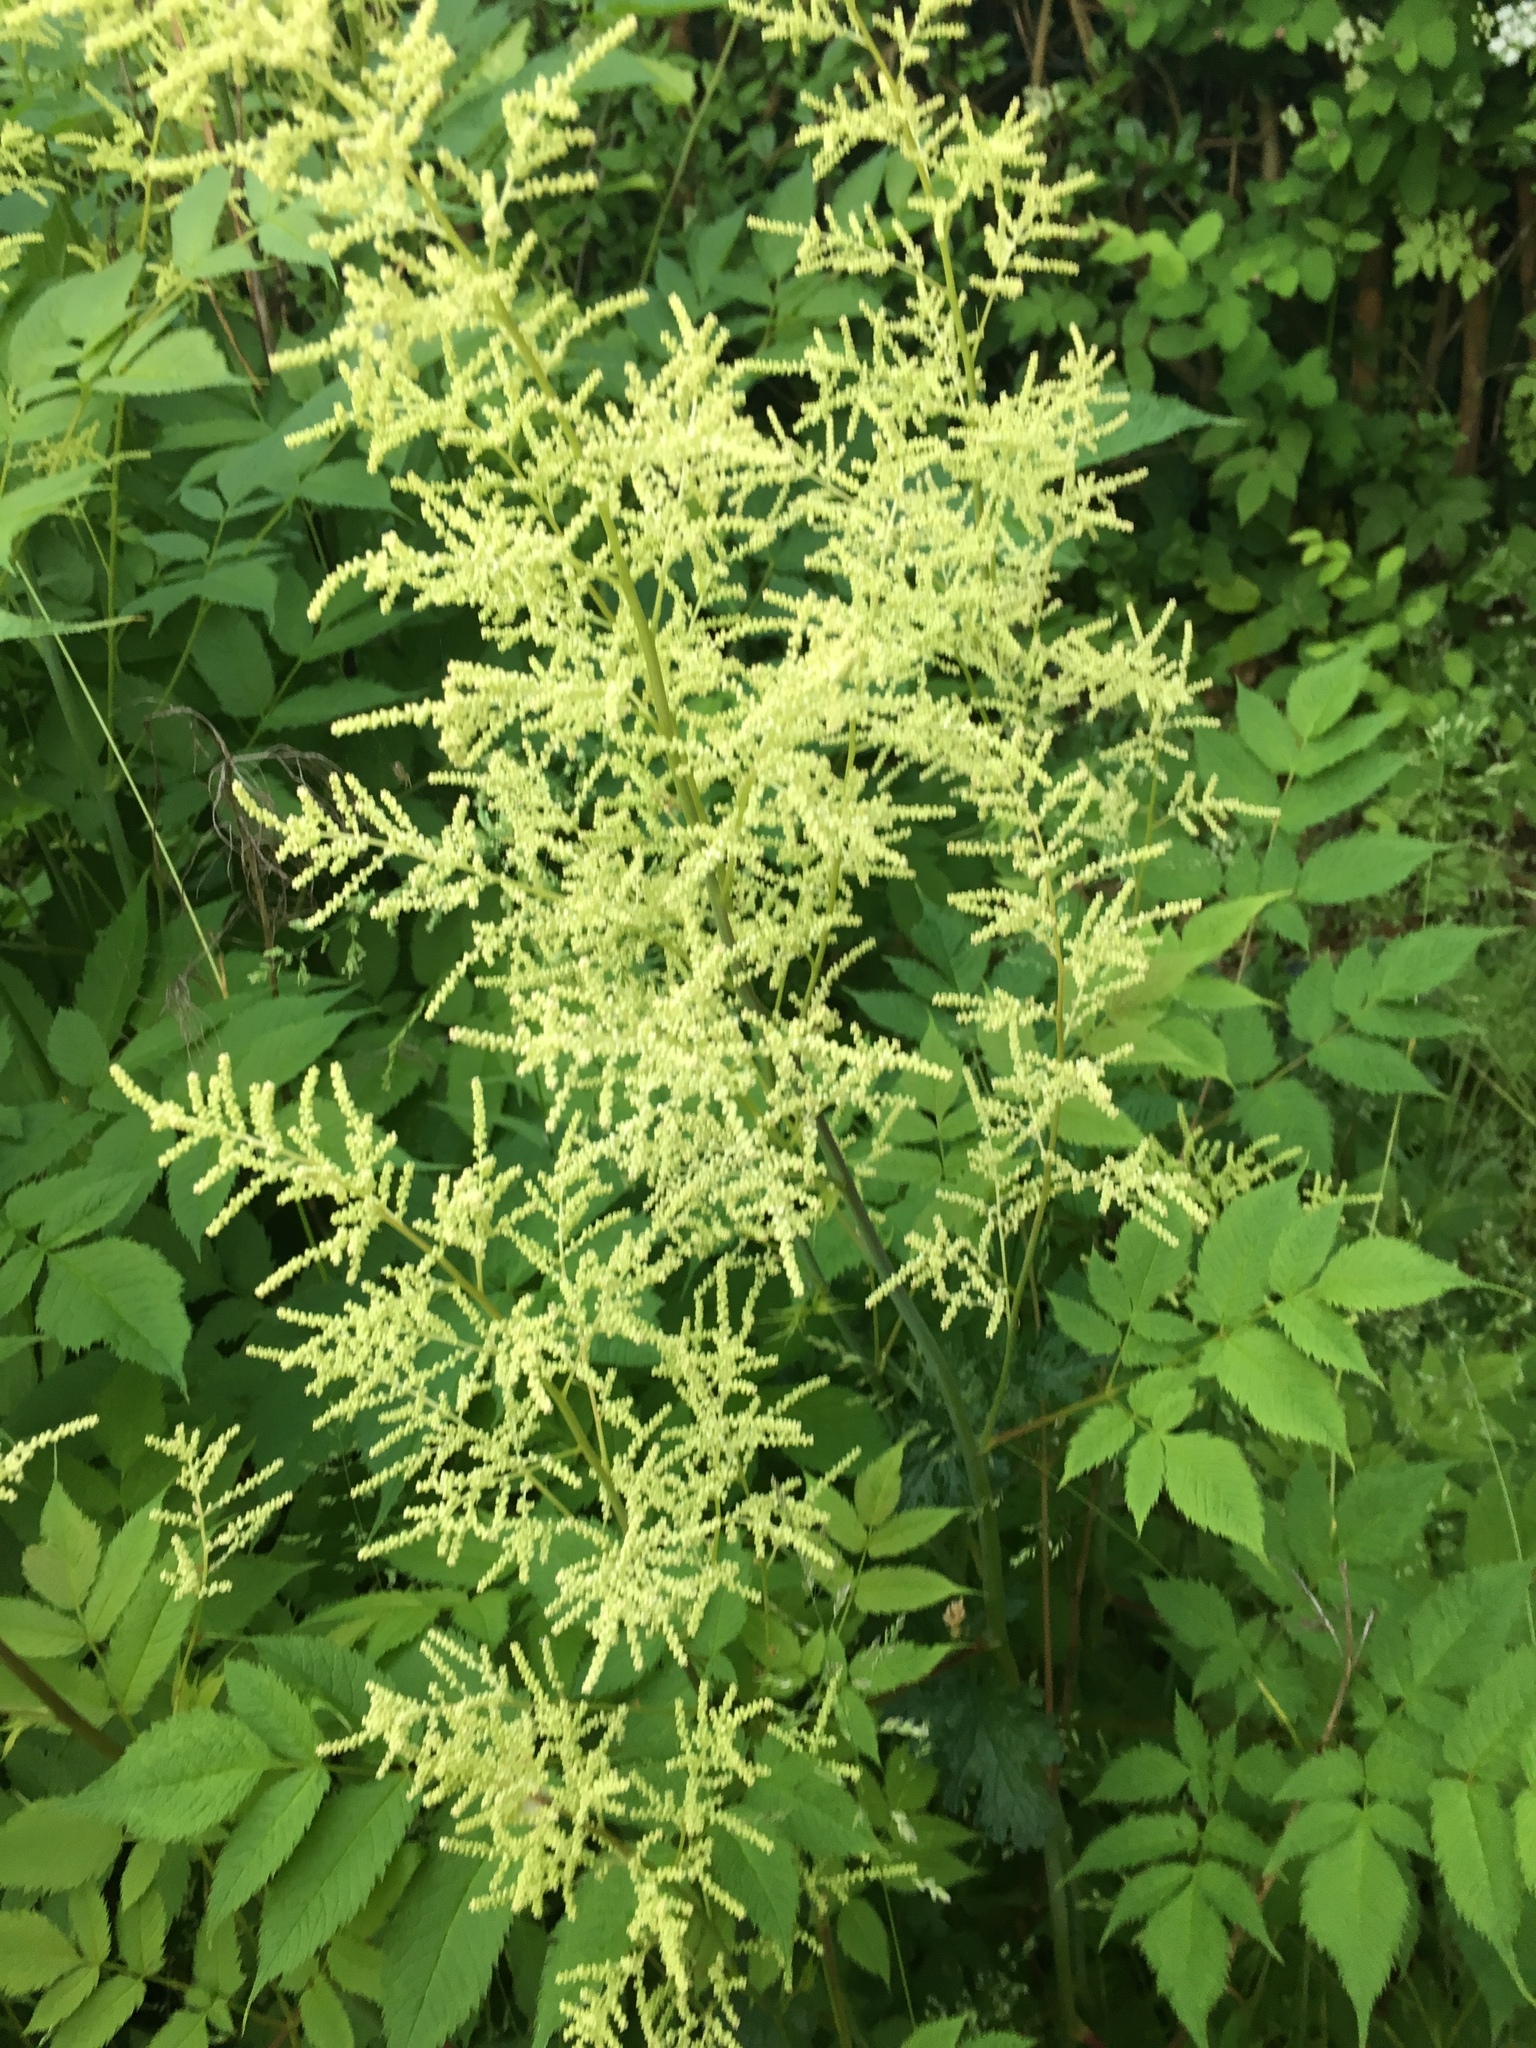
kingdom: Plantae
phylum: Tracheophyta
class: Magnoliopsida
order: Rosales
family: Rosaceae
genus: Aruncus
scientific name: Aruncus dioicus
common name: Buck's-beard
